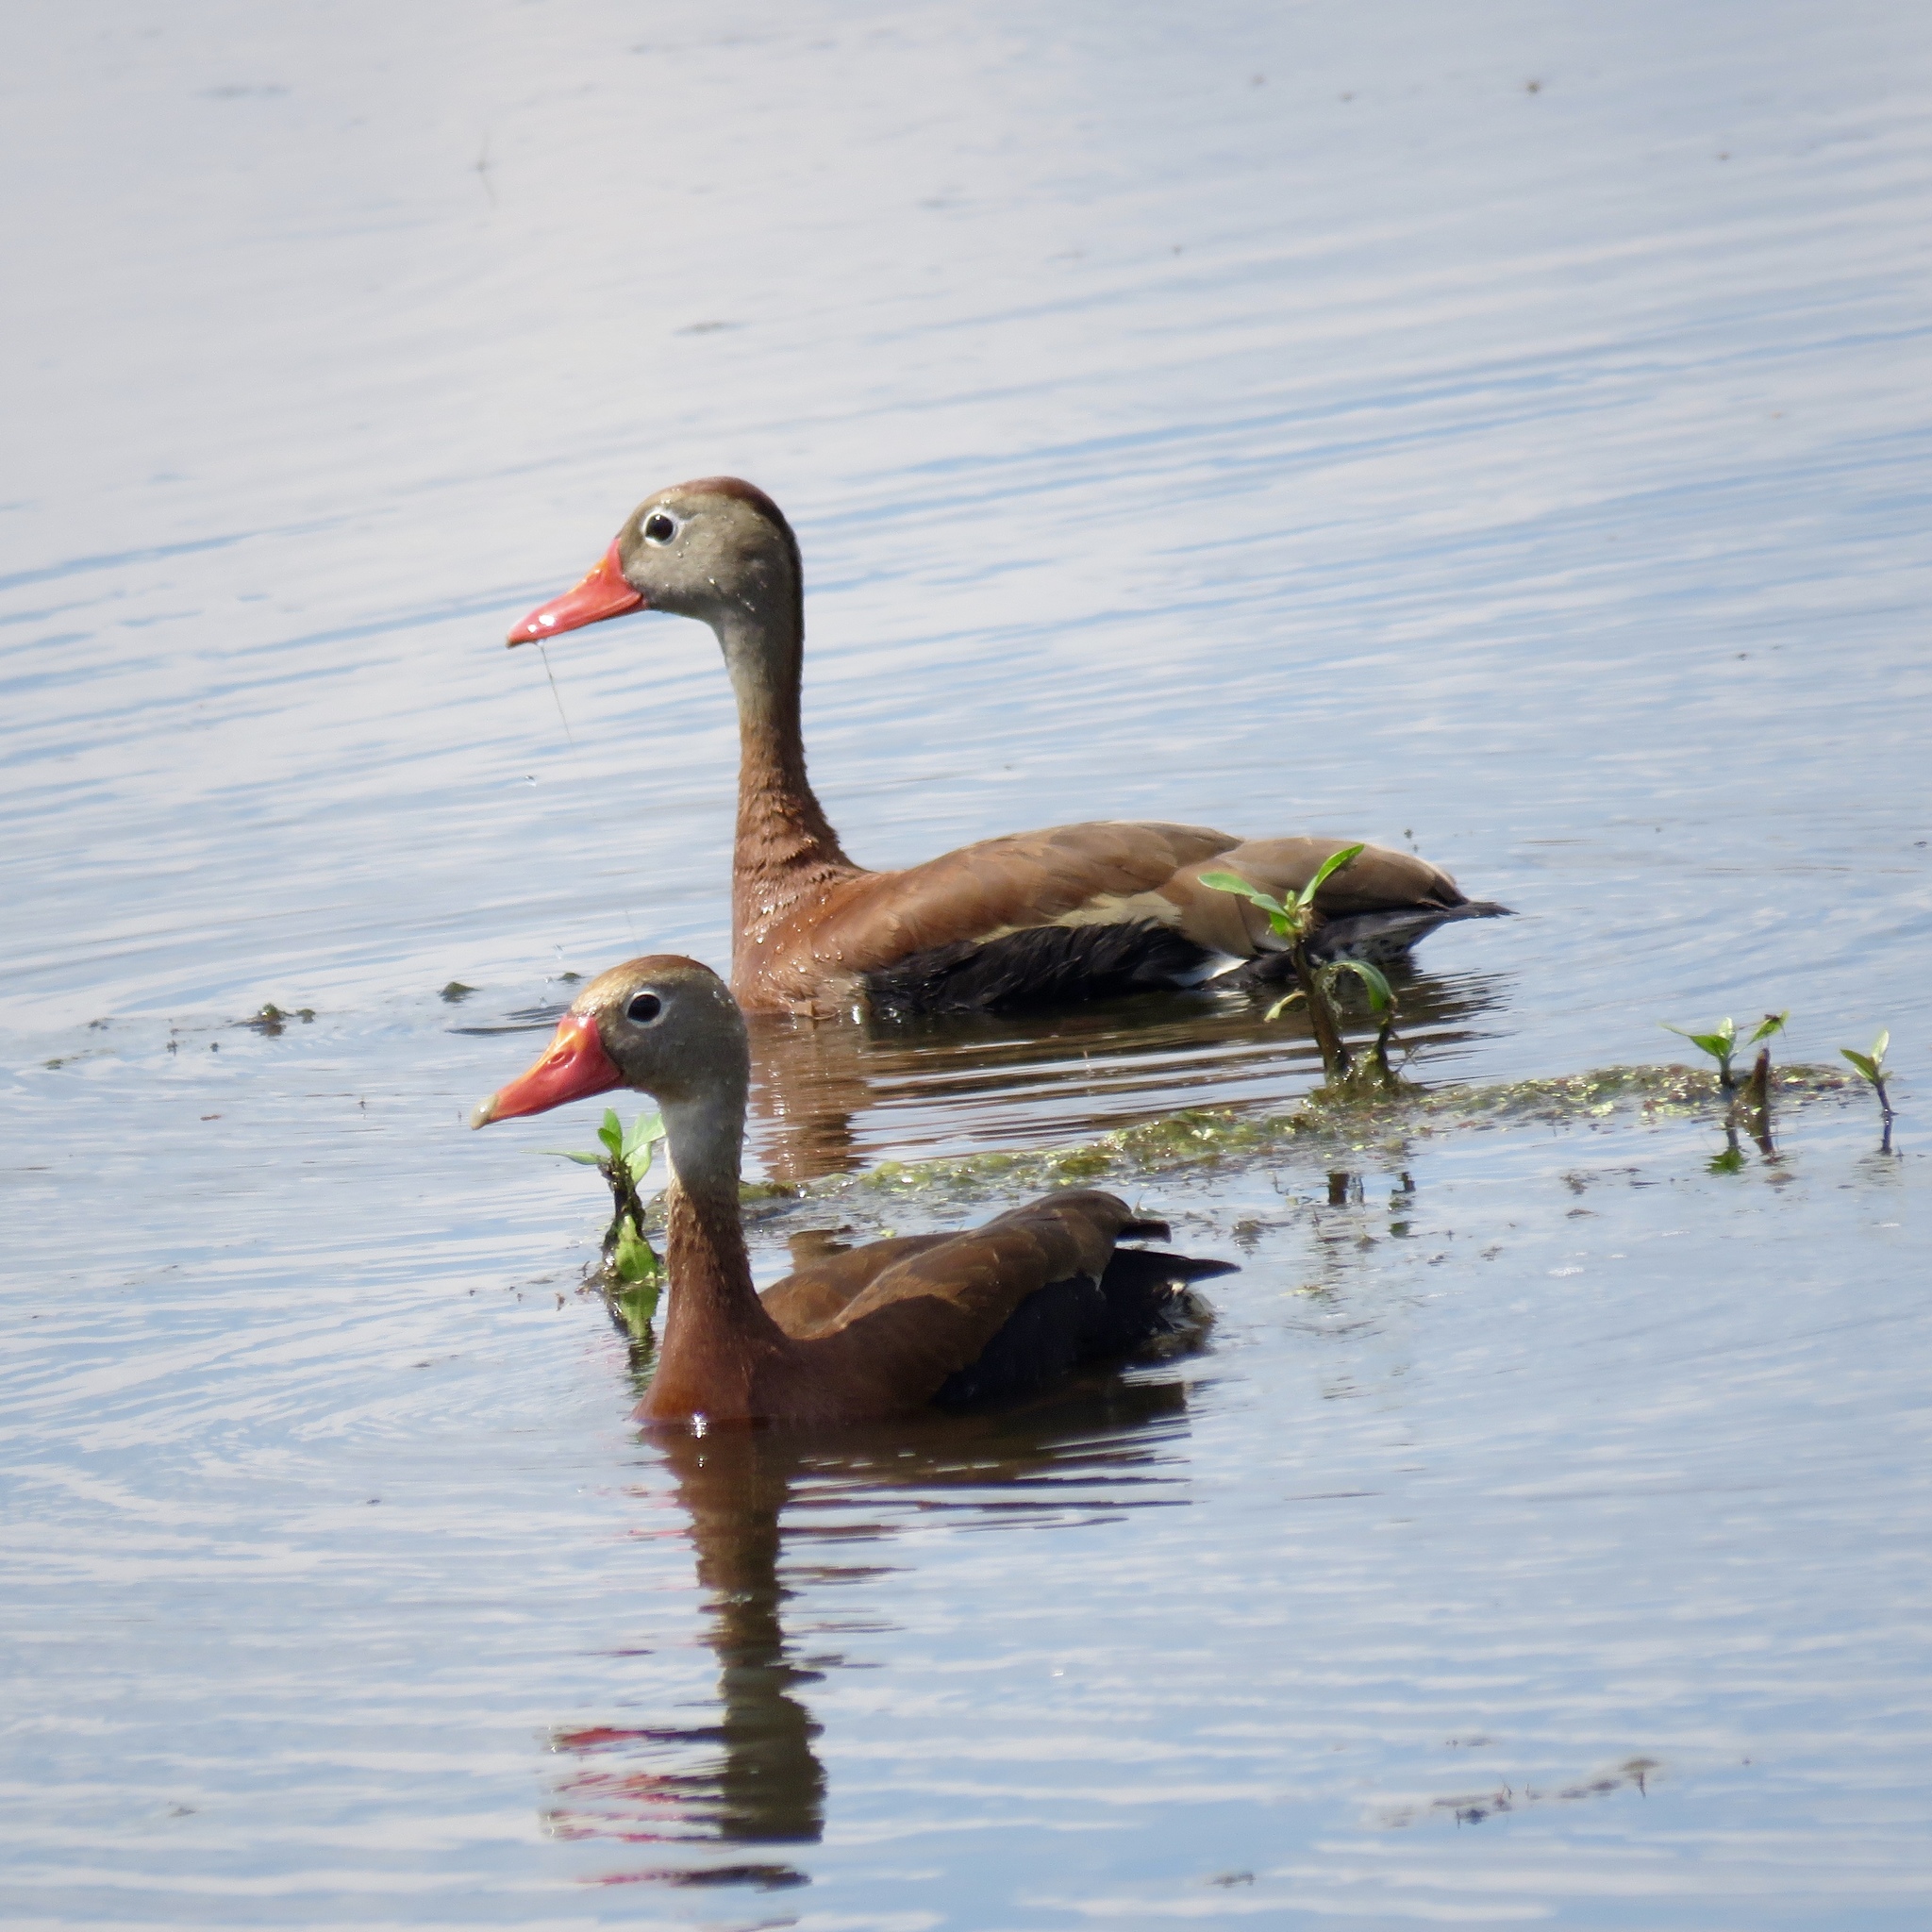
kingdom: Animalia
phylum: Chordata
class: Aves
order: Anseriformes
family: Anatidae
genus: Dendrocygna
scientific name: Dendrocygna autumnalis
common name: Black-bellied whistling duck
